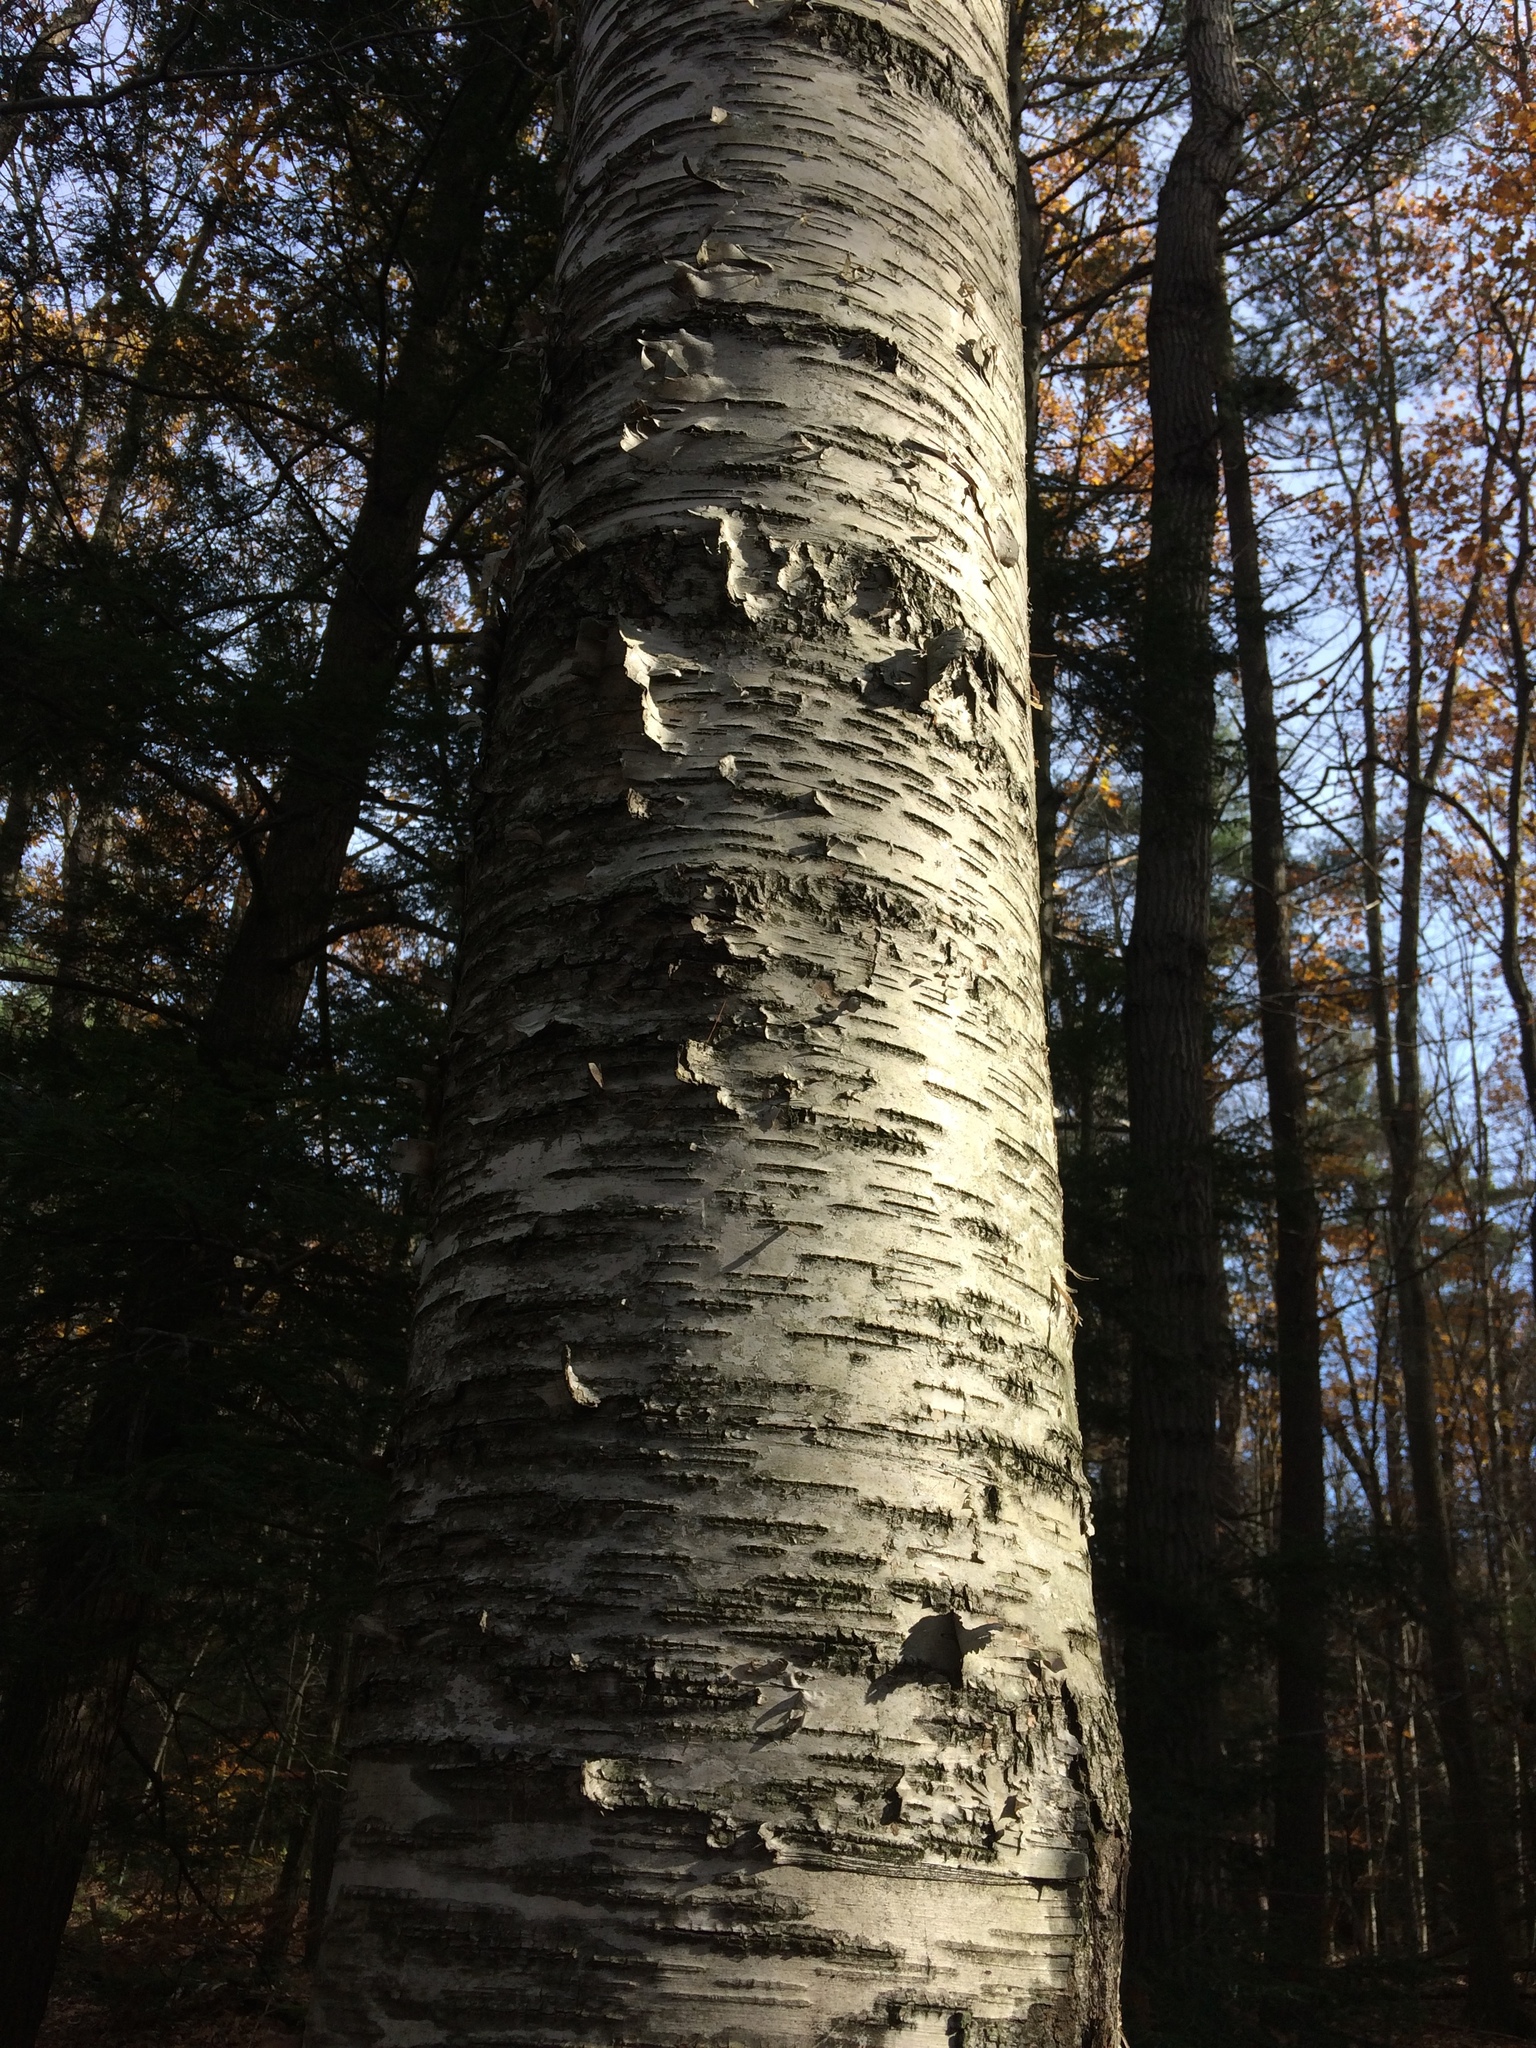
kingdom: Plantae
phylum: Tracheophyta
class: Magnoliopsida
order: Fagales
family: Betulaceae
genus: Betula
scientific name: Betula papyrifera
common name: Paper birch
